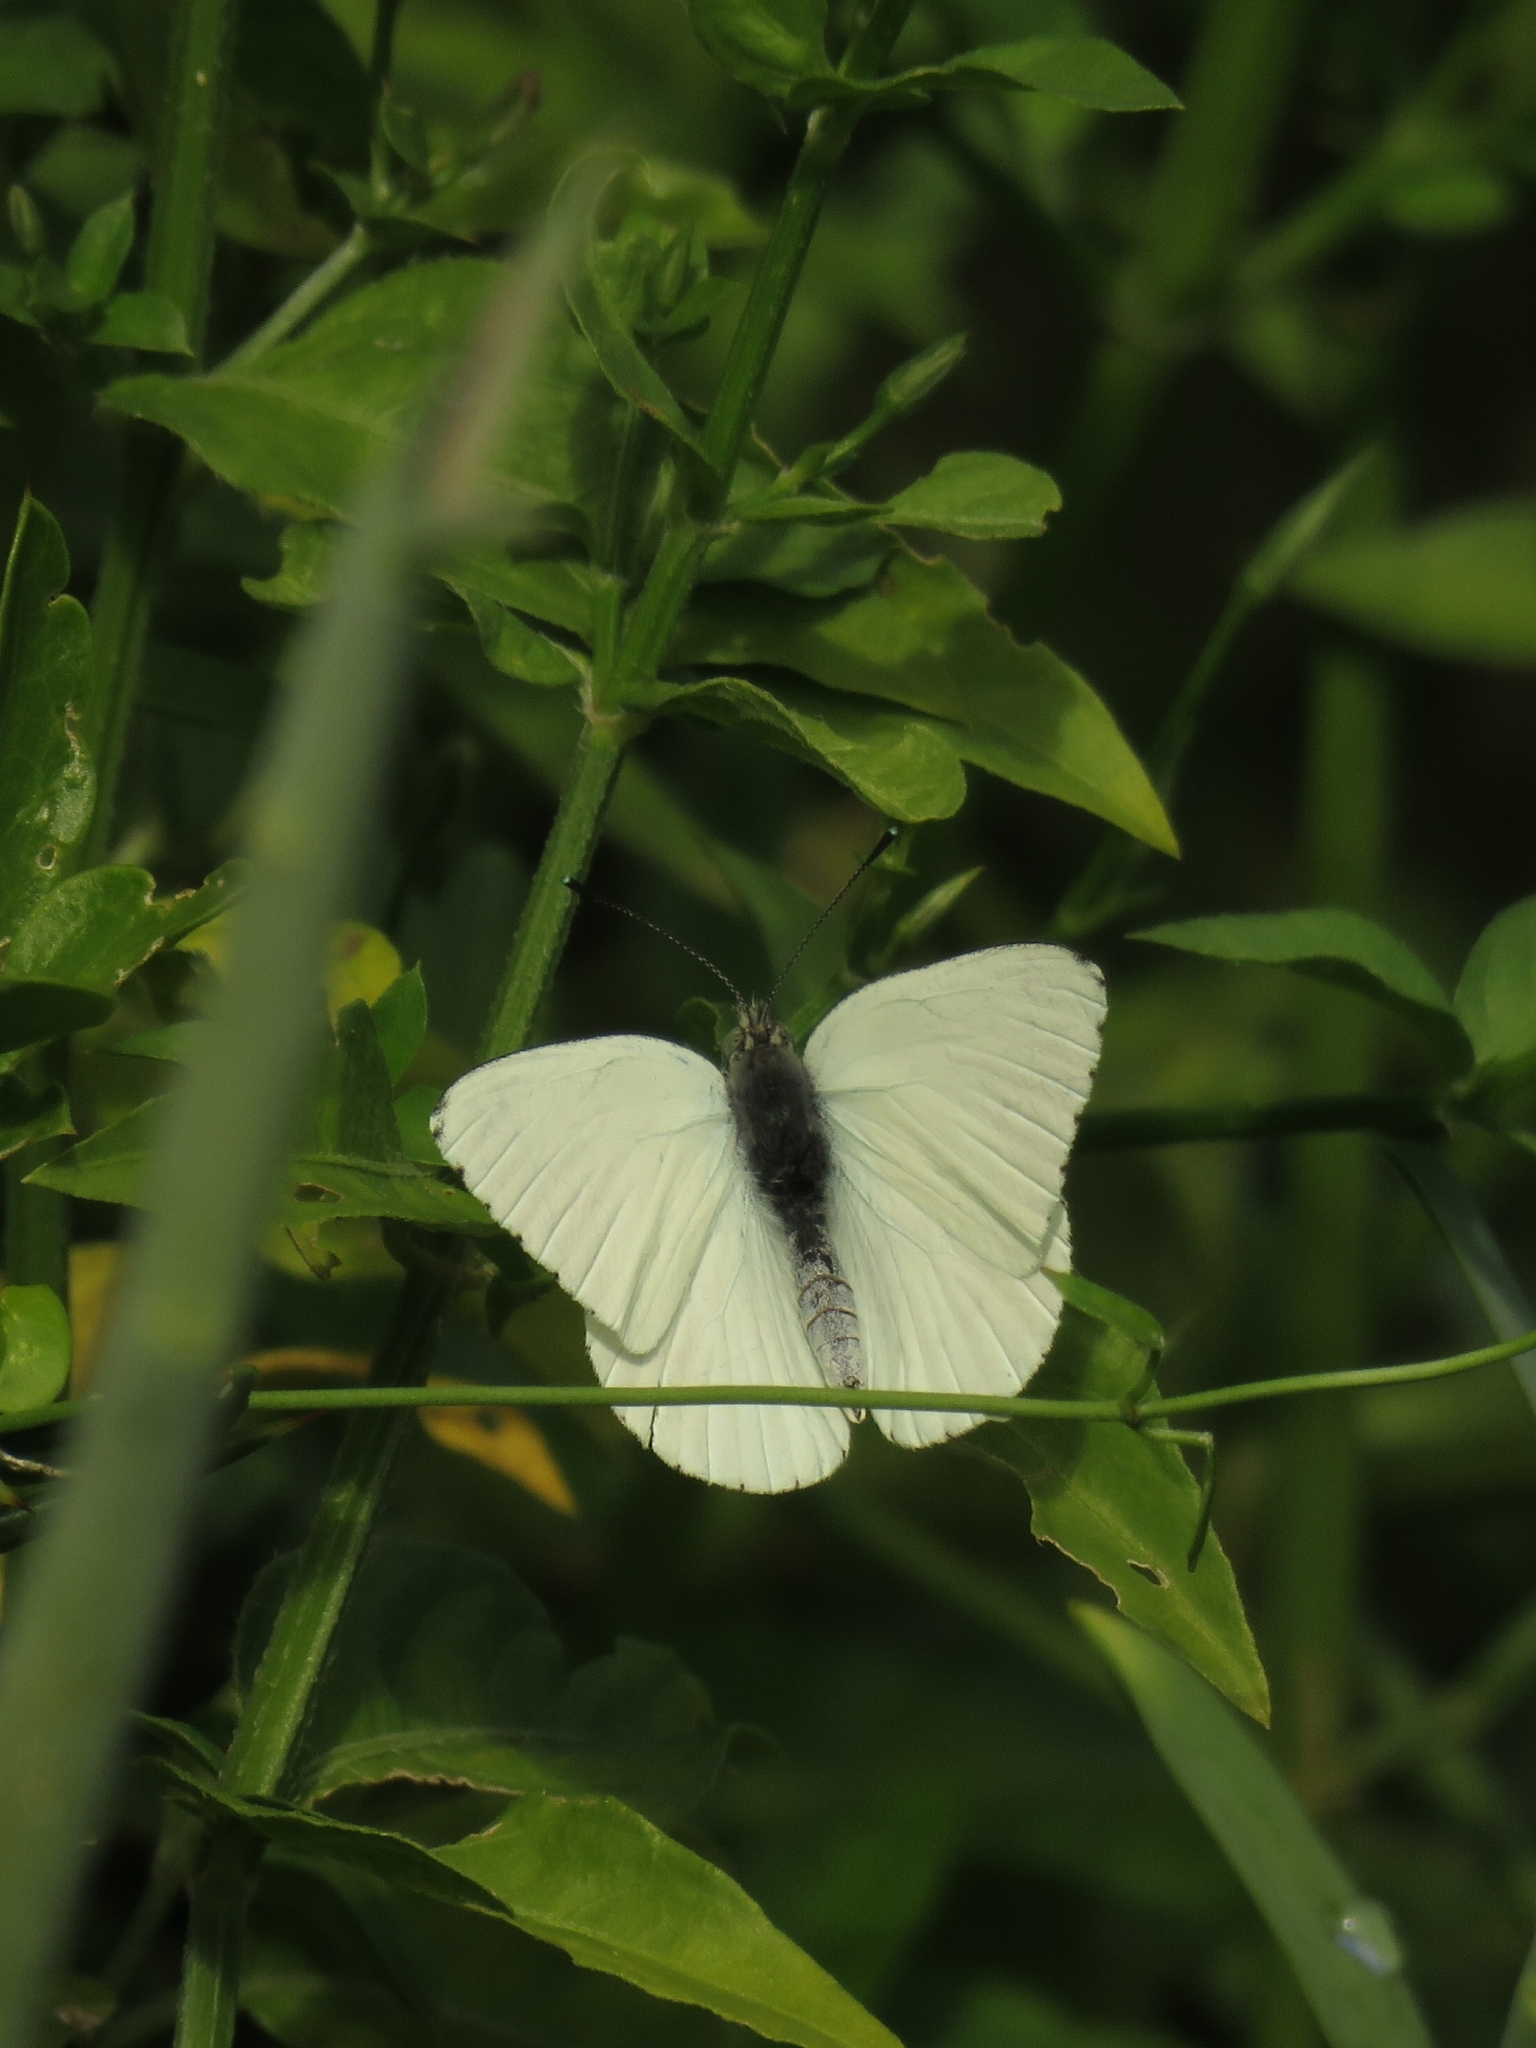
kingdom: Animalia
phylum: Arthropoda
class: Insecta
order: Lepidoptera
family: Pieridae
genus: Dixeia
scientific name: Dixeia charina
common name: African small white
